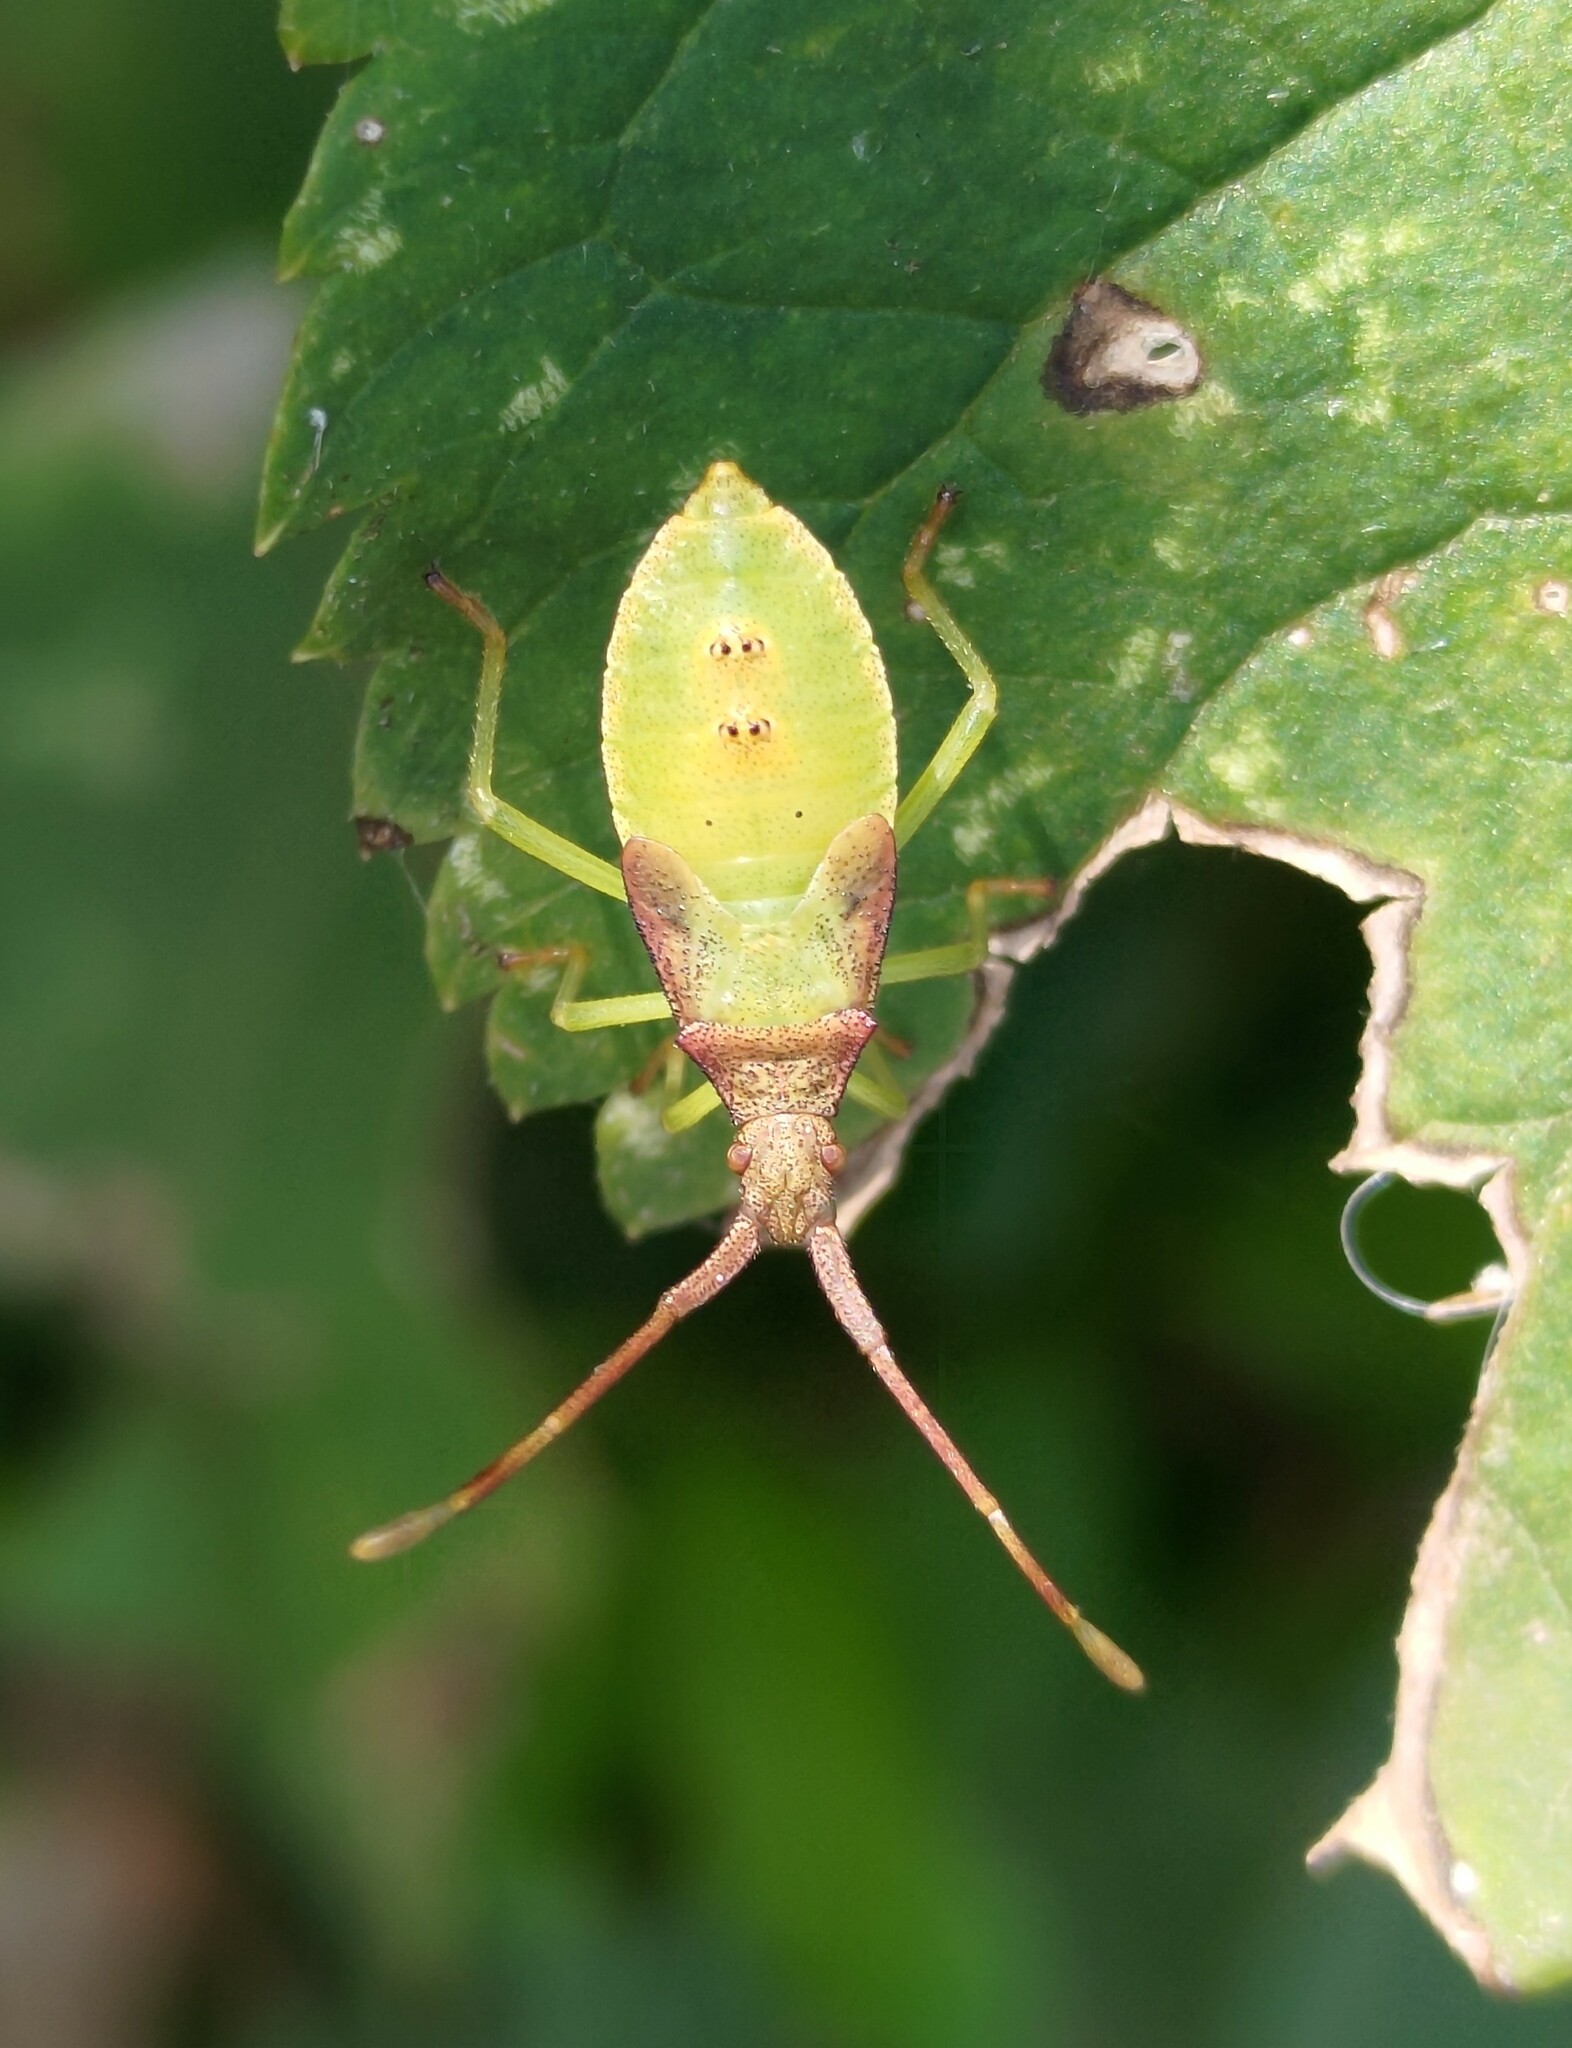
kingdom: Animalia
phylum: Arthropoda
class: Insecta
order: Hemiptera
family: Coreidae
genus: Gonocerus
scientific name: Gonocerus acuteangulatus
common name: Box bug
